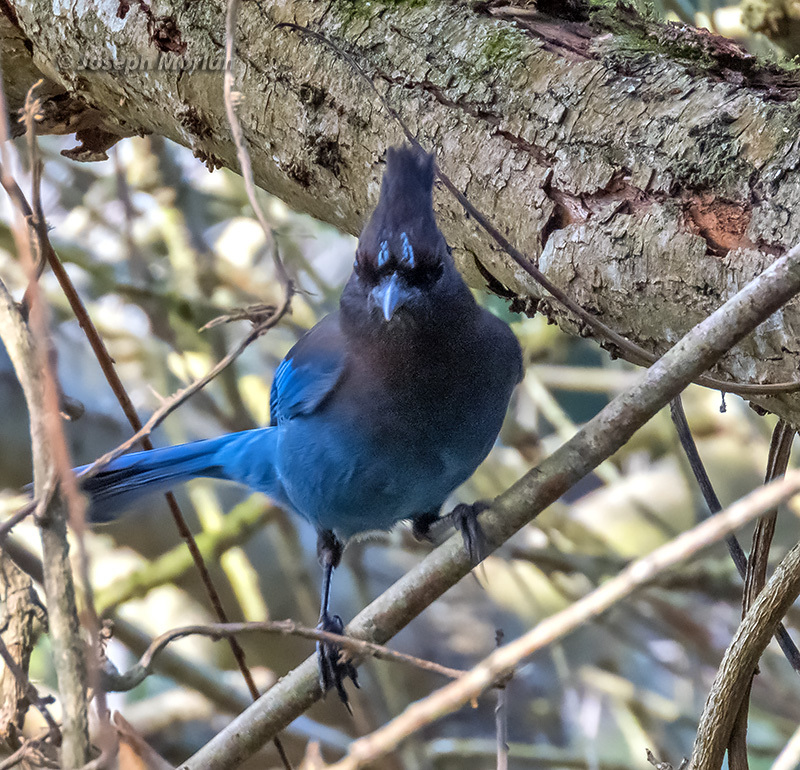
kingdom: Animalia
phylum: Chordata
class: Aves
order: Passeriformes
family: Corvidae
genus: Cyanocitta
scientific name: Cyanocitta stelleri
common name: Steller's jay
